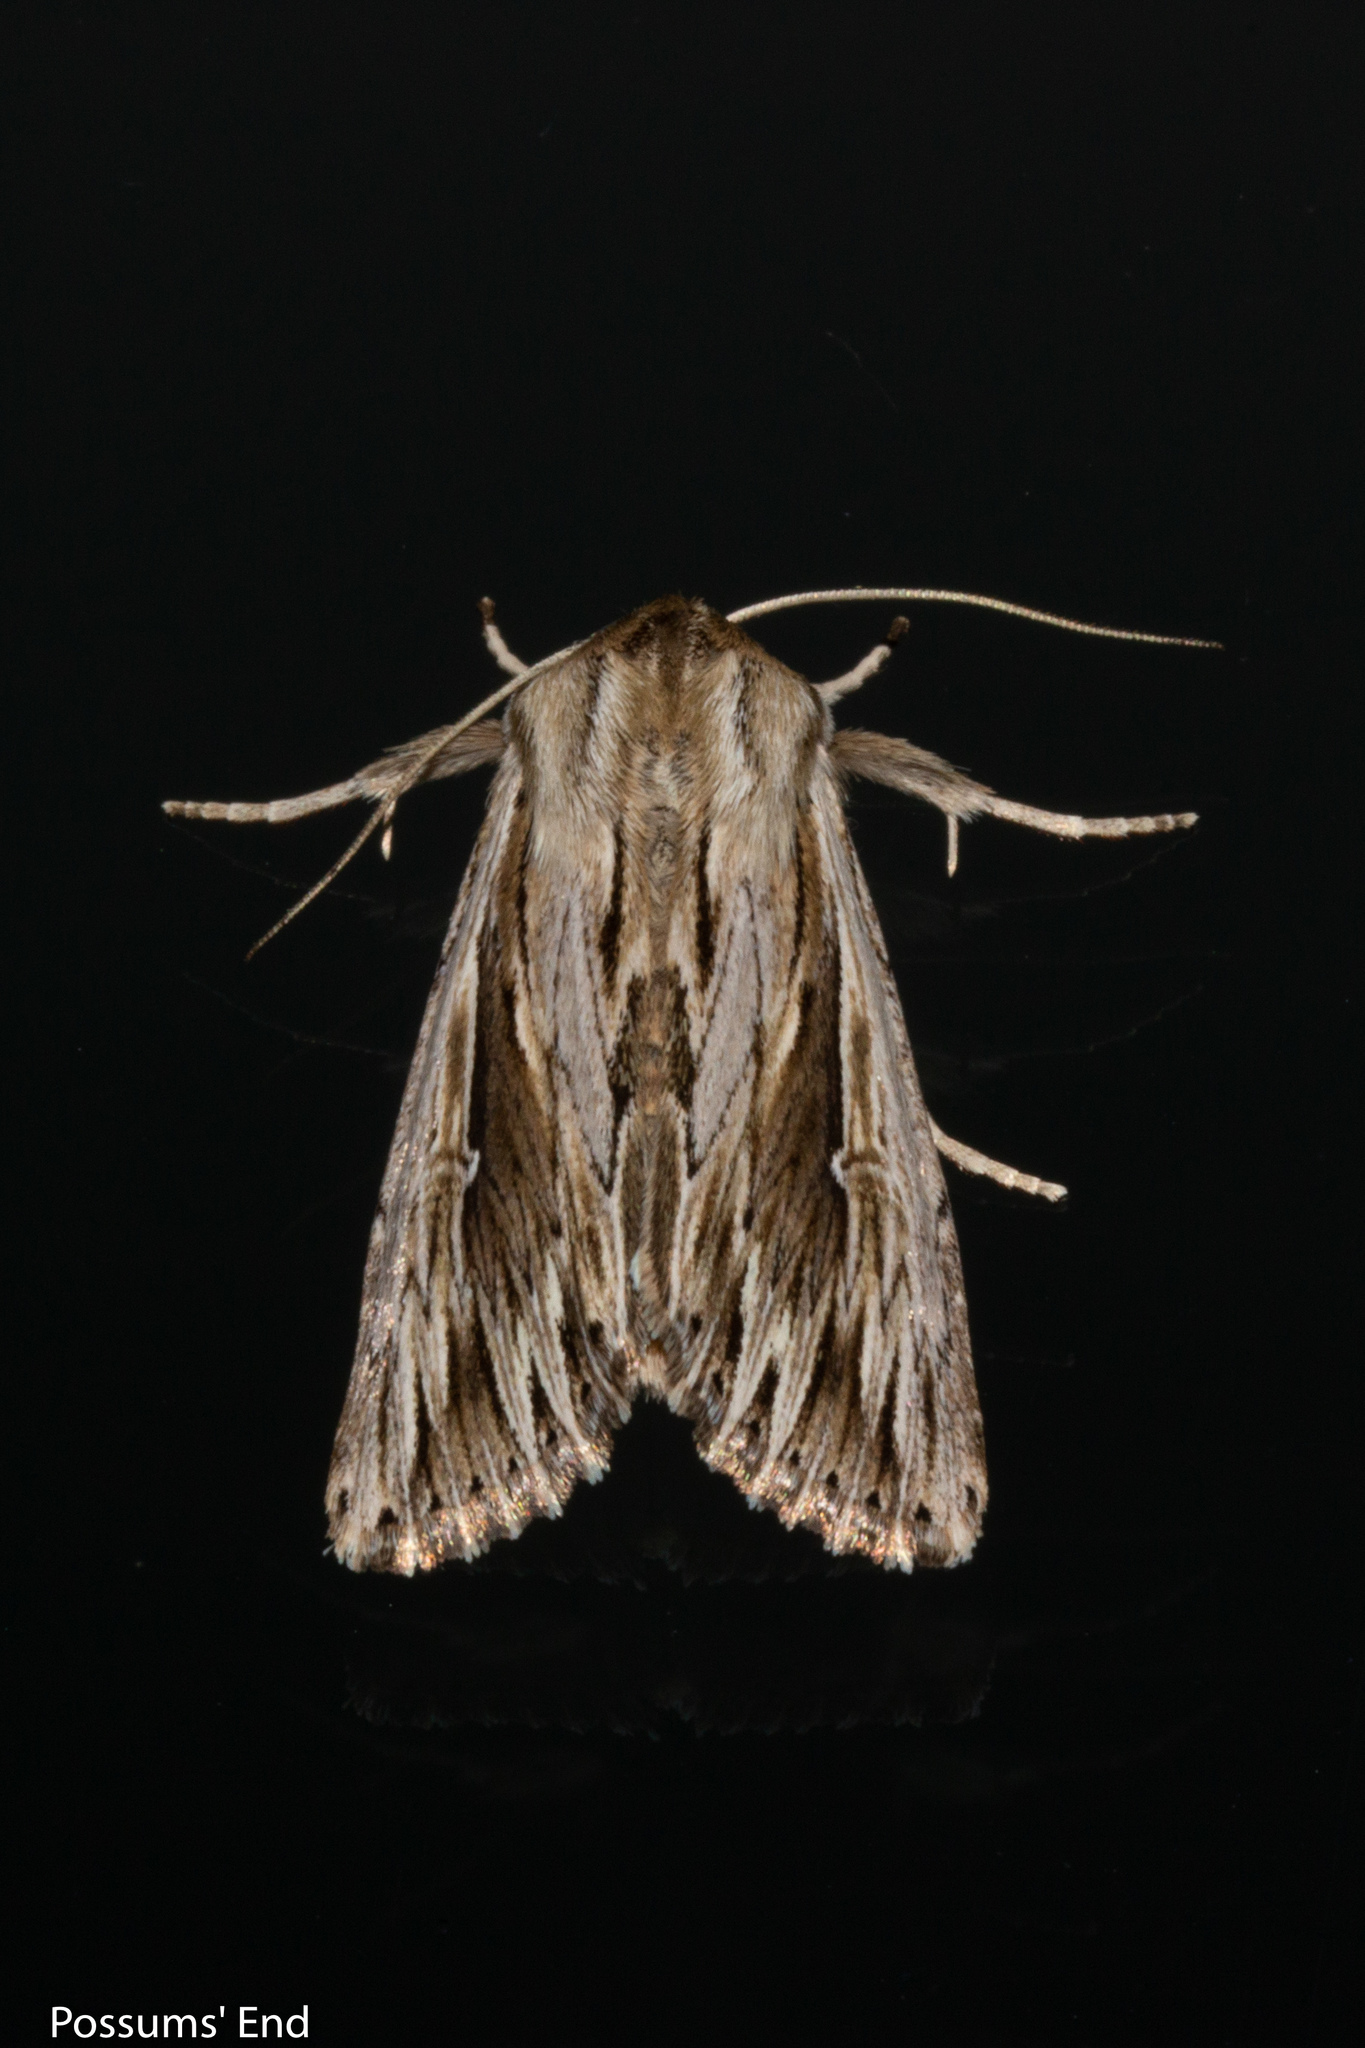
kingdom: Animalia
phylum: Arthropoda
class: Insecta
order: Lepidoptera
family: Noctuidae
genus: Persectania
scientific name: Persectania aversa
